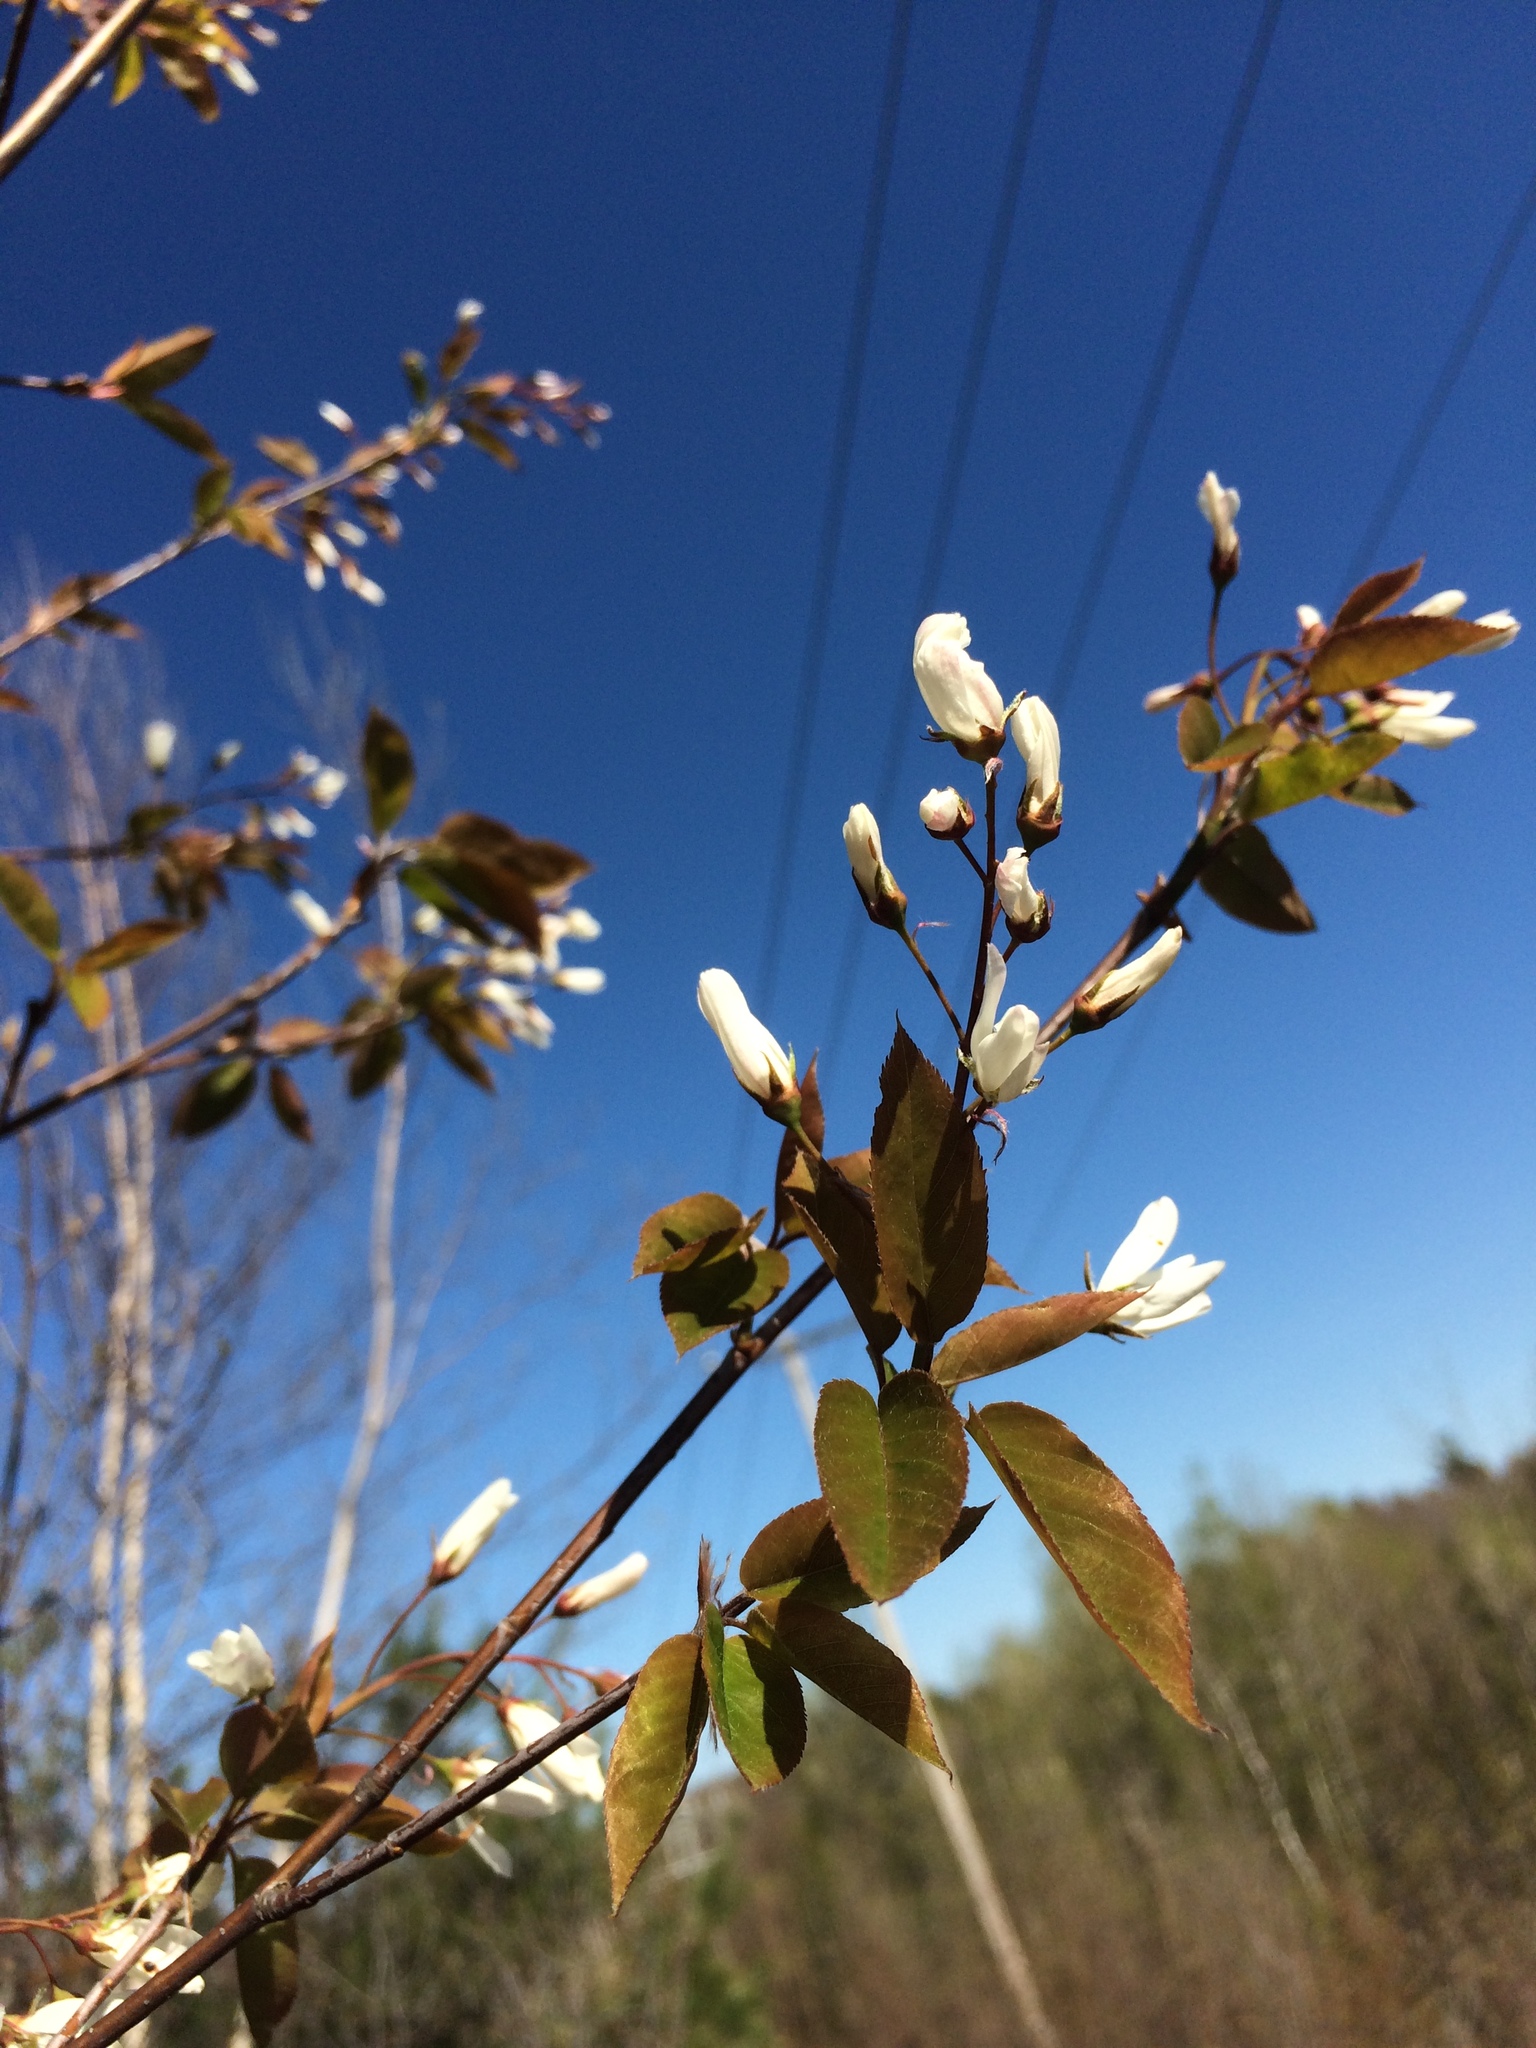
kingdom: Plantae
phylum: Tracheophyta
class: Magnoliopsida
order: Rosales
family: Rosaceae
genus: Amelanchier
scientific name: Amelanchier laevis
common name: Allegheny serviceberry
